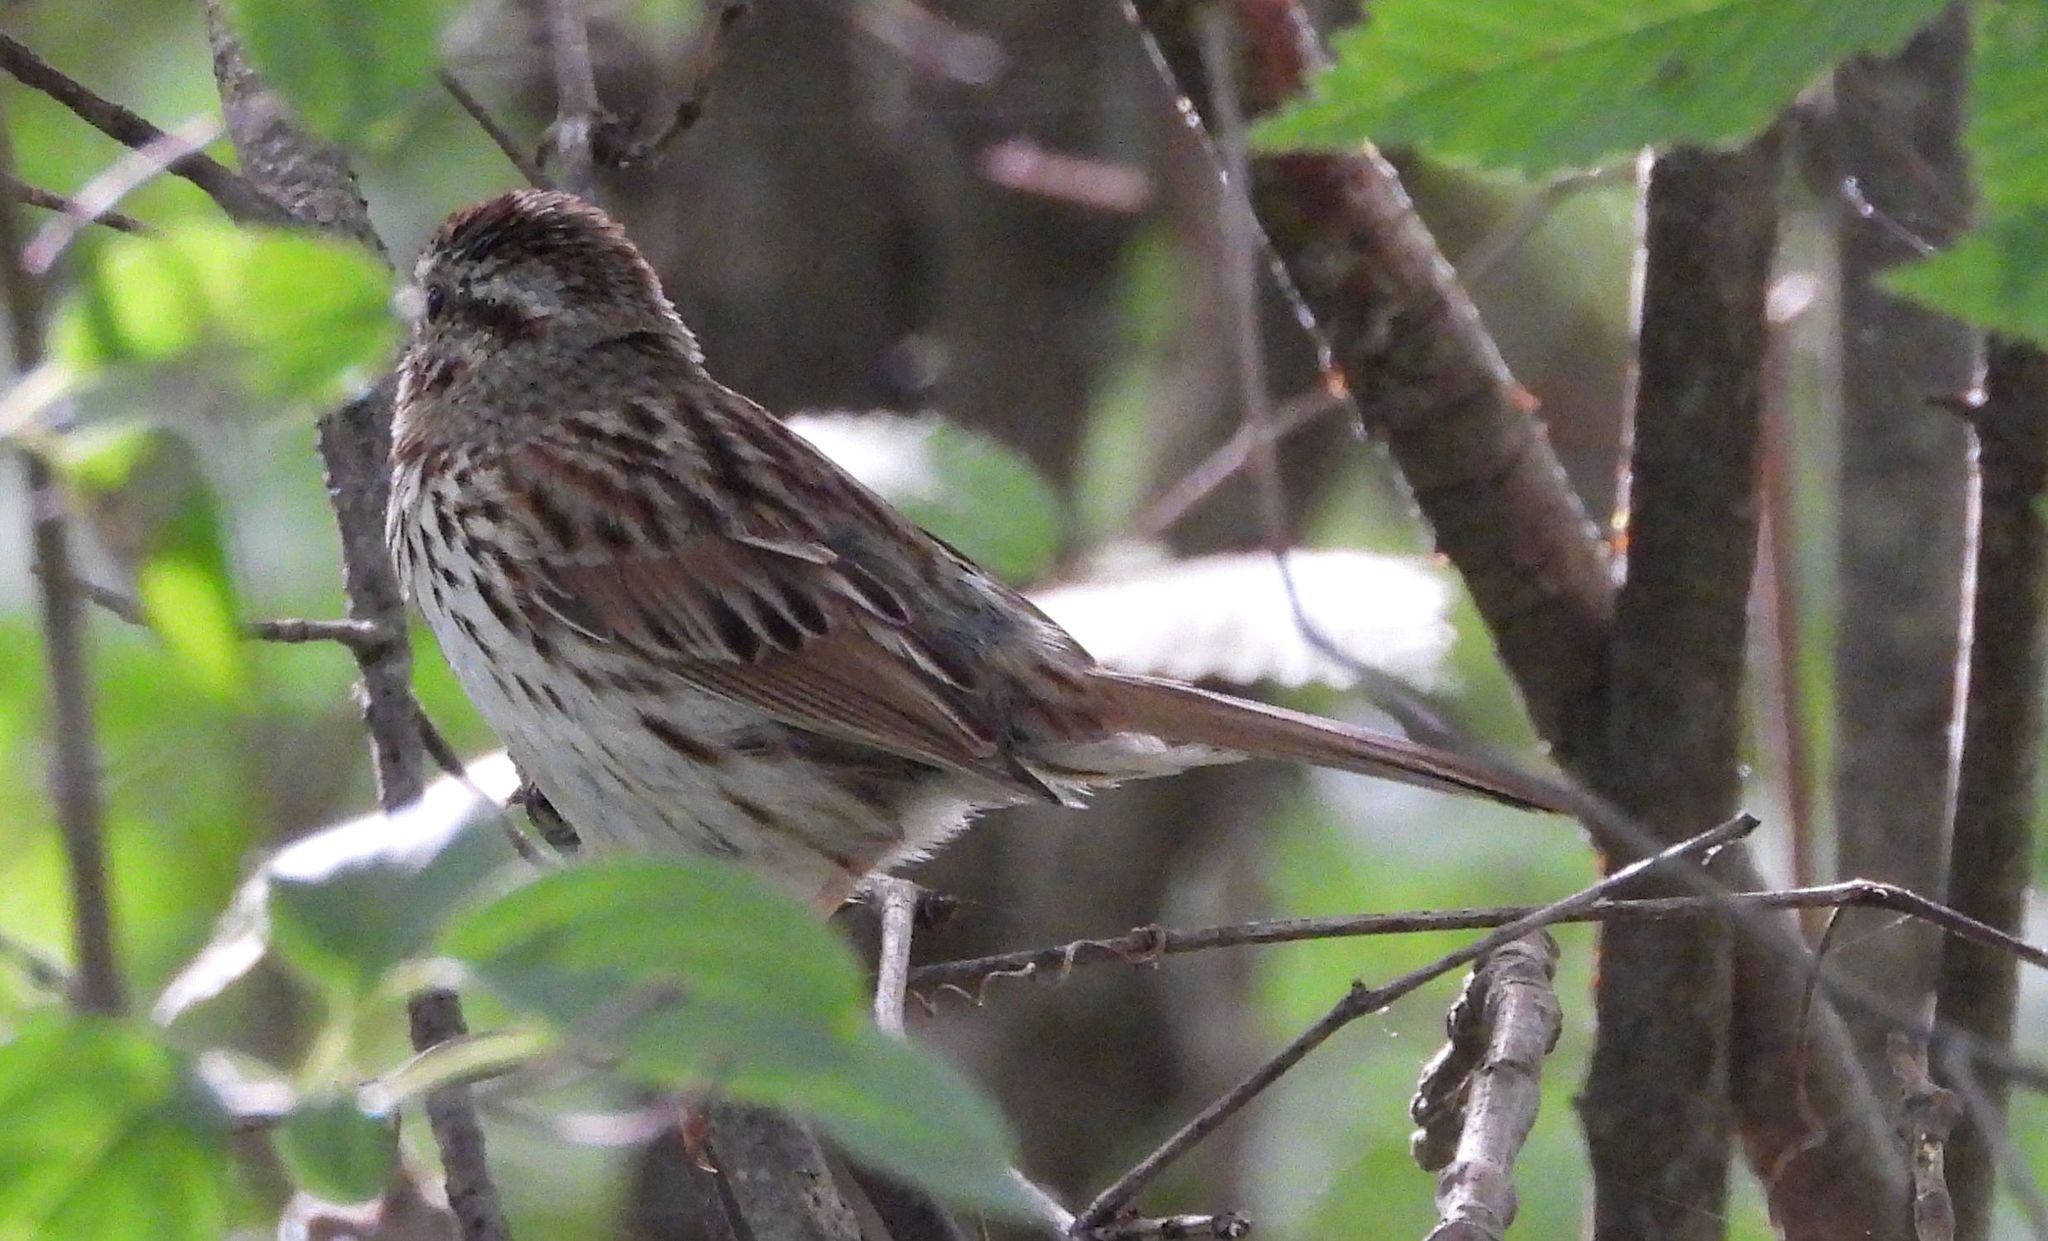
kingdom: Animalia
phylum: Chordata
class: Aves
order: Passeriformes
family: Passerellidae
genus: Melospiza
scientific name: Melospiza melodia
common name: Song sparrow
